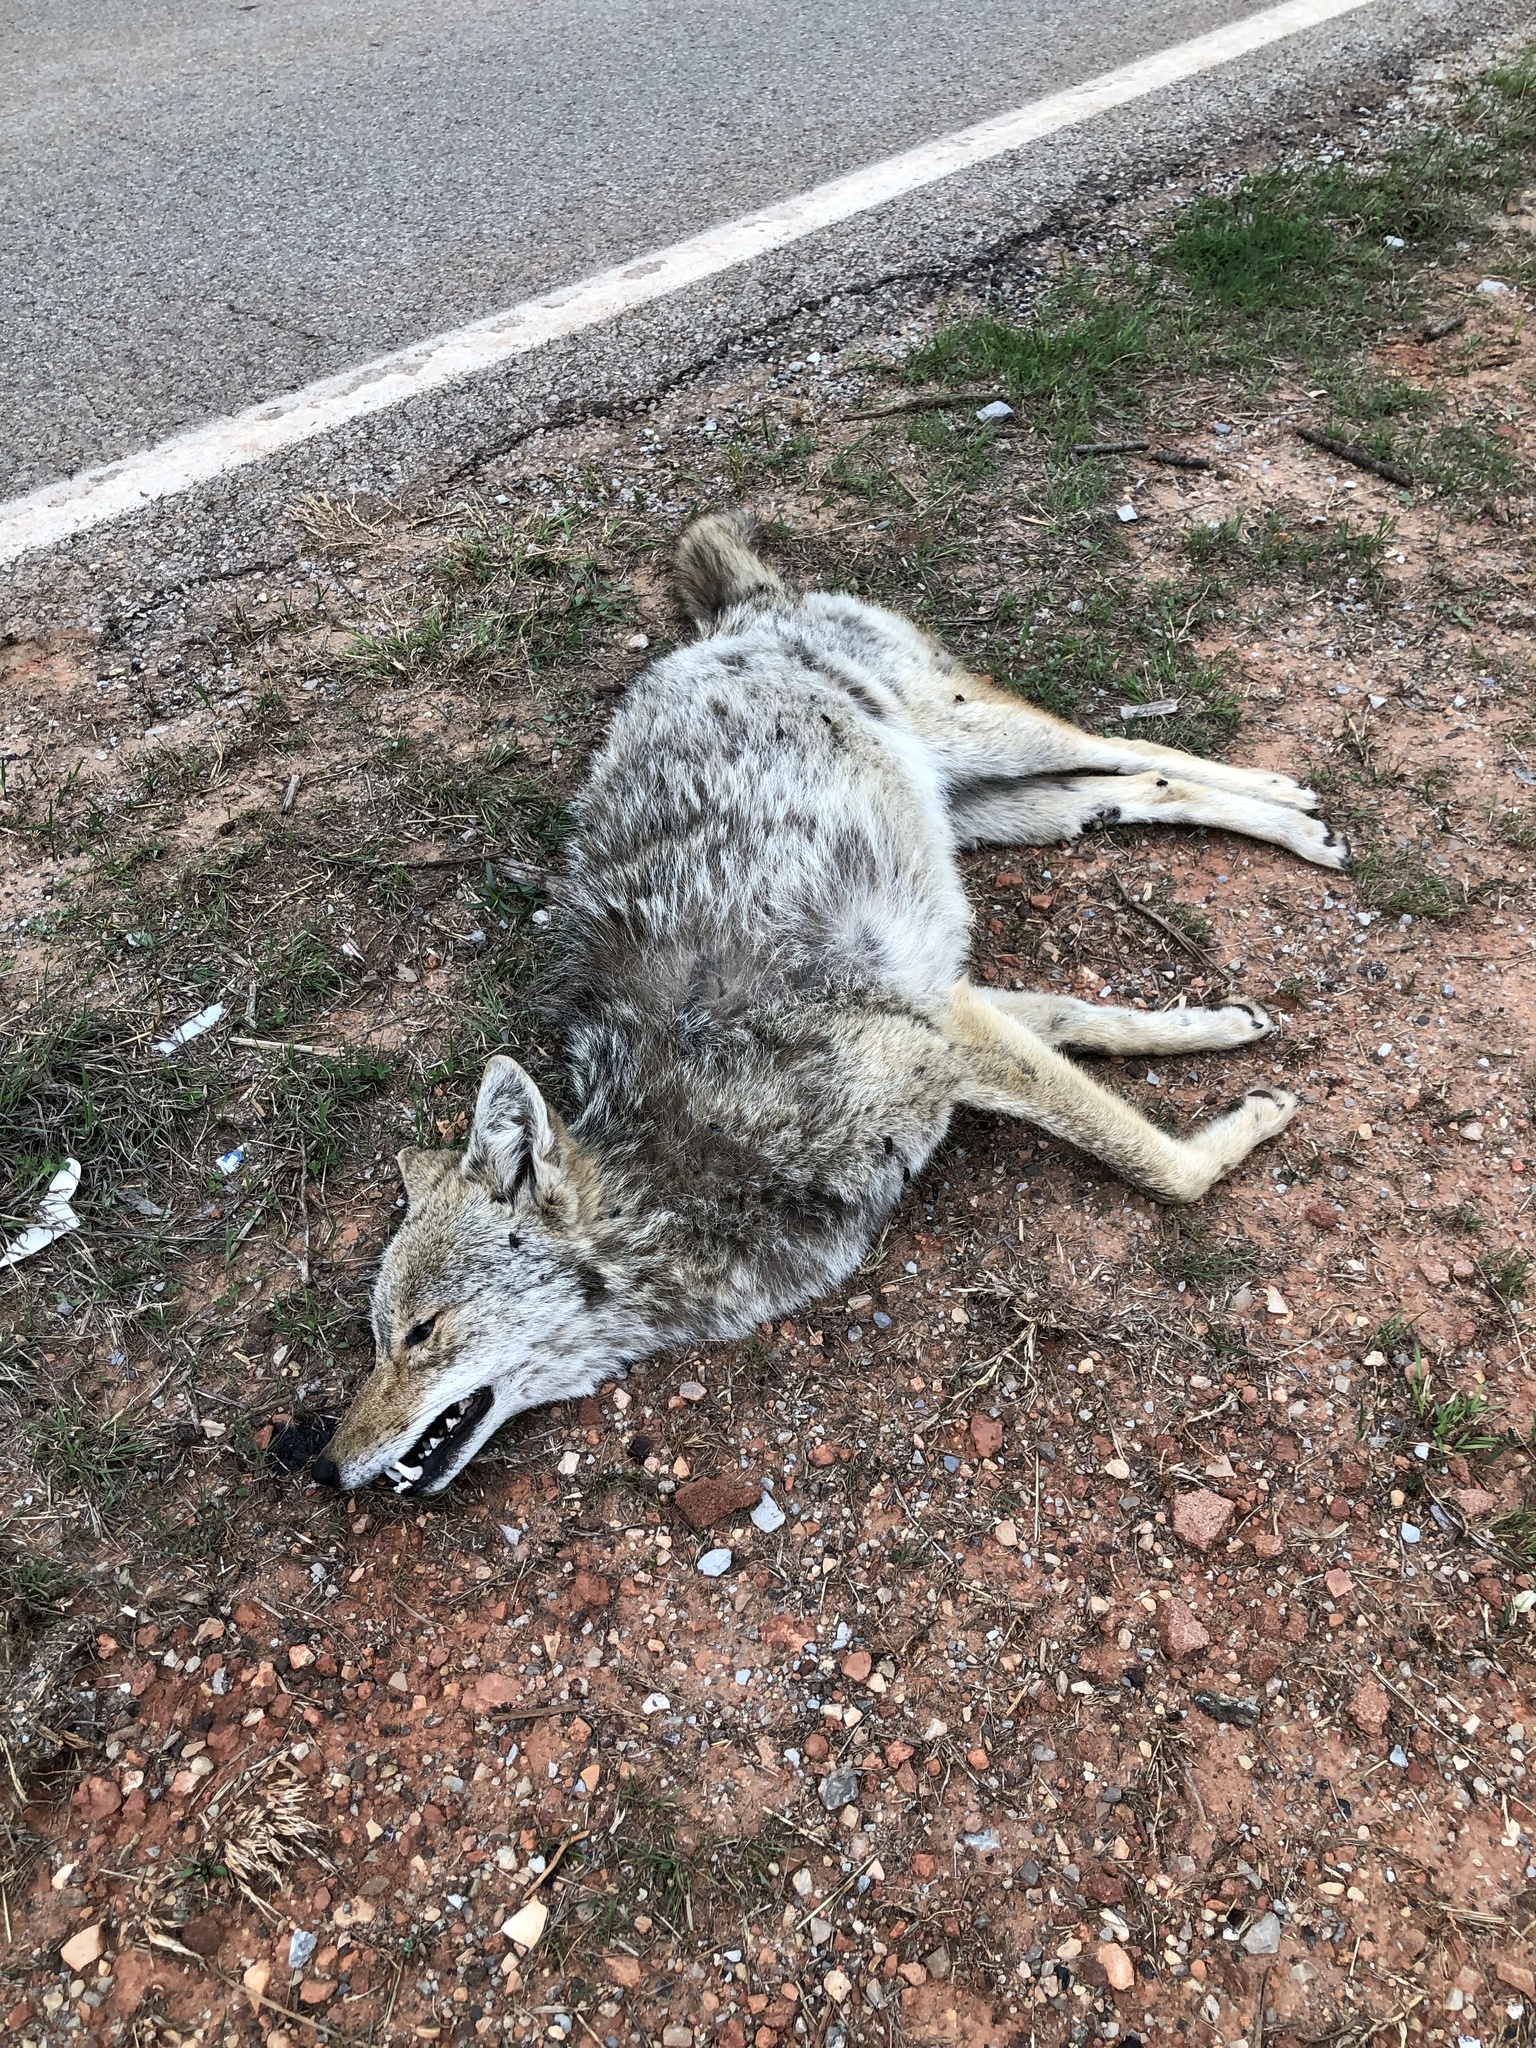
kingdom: Animalia
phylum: Chordata
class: Mammalia
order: Carnivora
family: Canidae
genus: Canis
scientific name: Canis latrans
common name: Coyote
